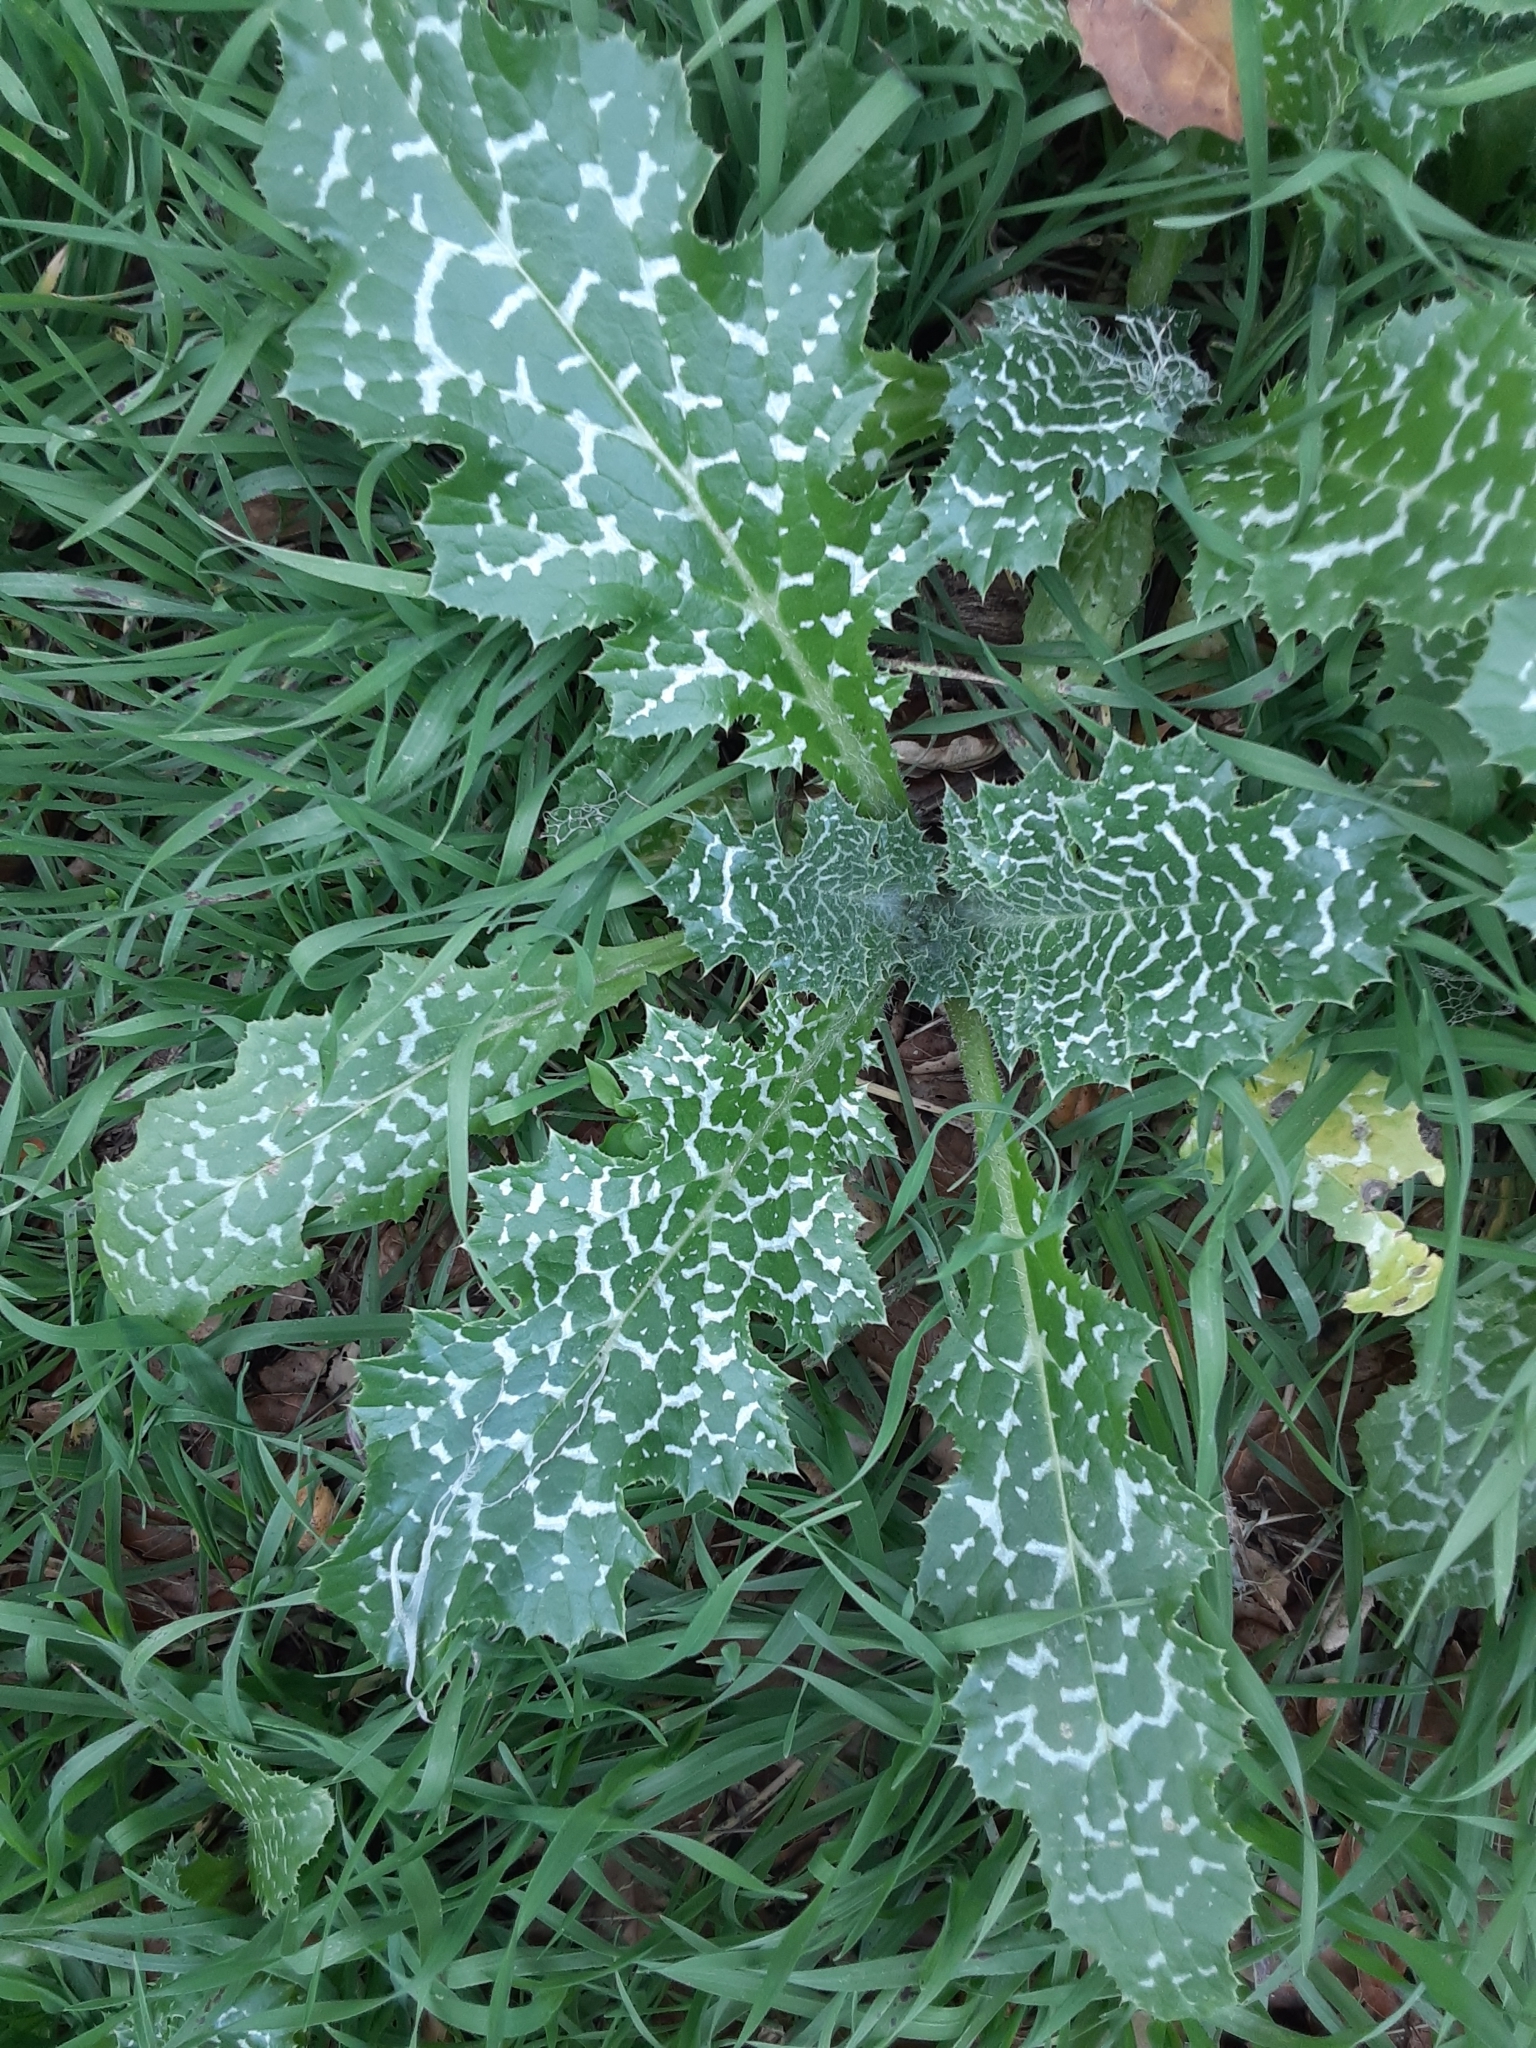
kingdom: Plantae
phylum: Tracheophyta
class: Magnoliopsida
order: Asterales
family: Asteraceae
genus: Silybum
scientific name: Silybum marianum
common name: Milk thistle
